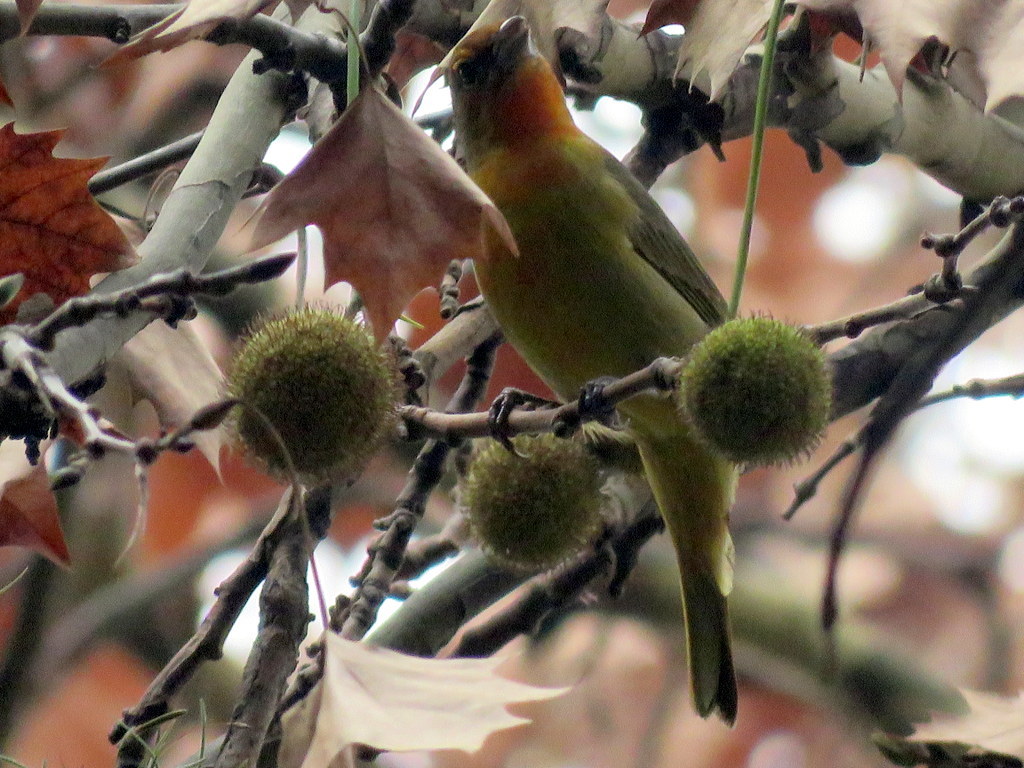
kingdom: Animalia
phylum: Chordata
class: Aves
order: Passeriformes
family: Cardinalidae
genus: Piranga
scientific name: Piranga flava
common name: Red tanager
